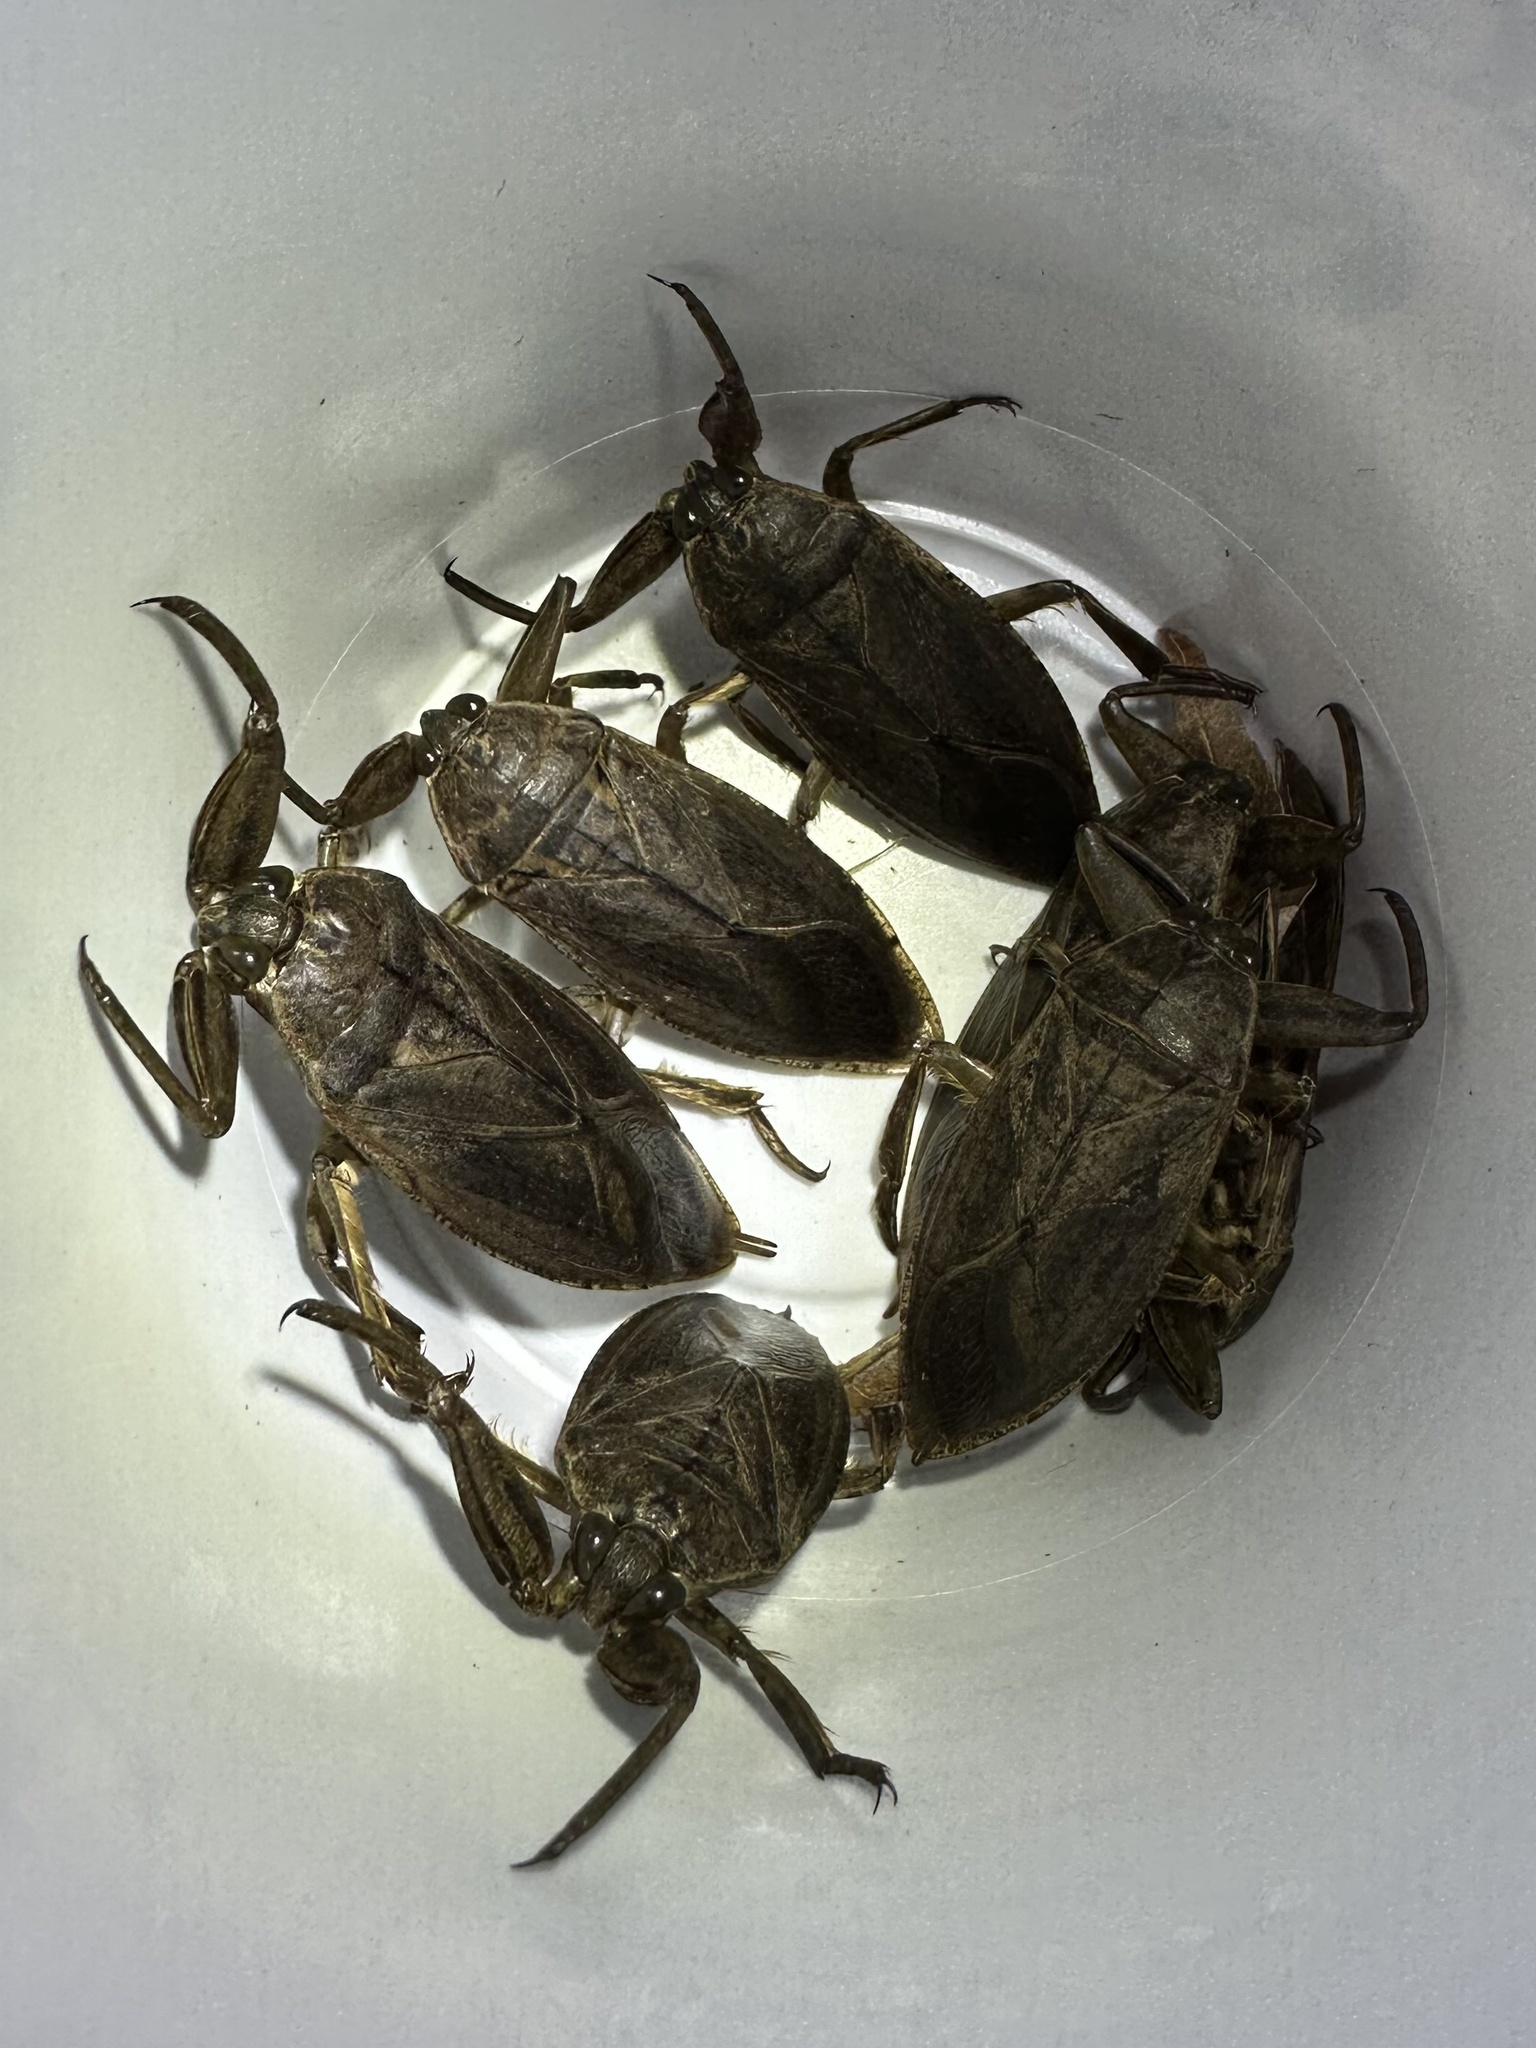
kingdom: Animalia
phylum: Arthropoda
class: Insecta
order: Hemiptera
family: Belostomatidae
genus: Lethocerus
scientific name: Lethocerus americanus
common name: Giant water bug
